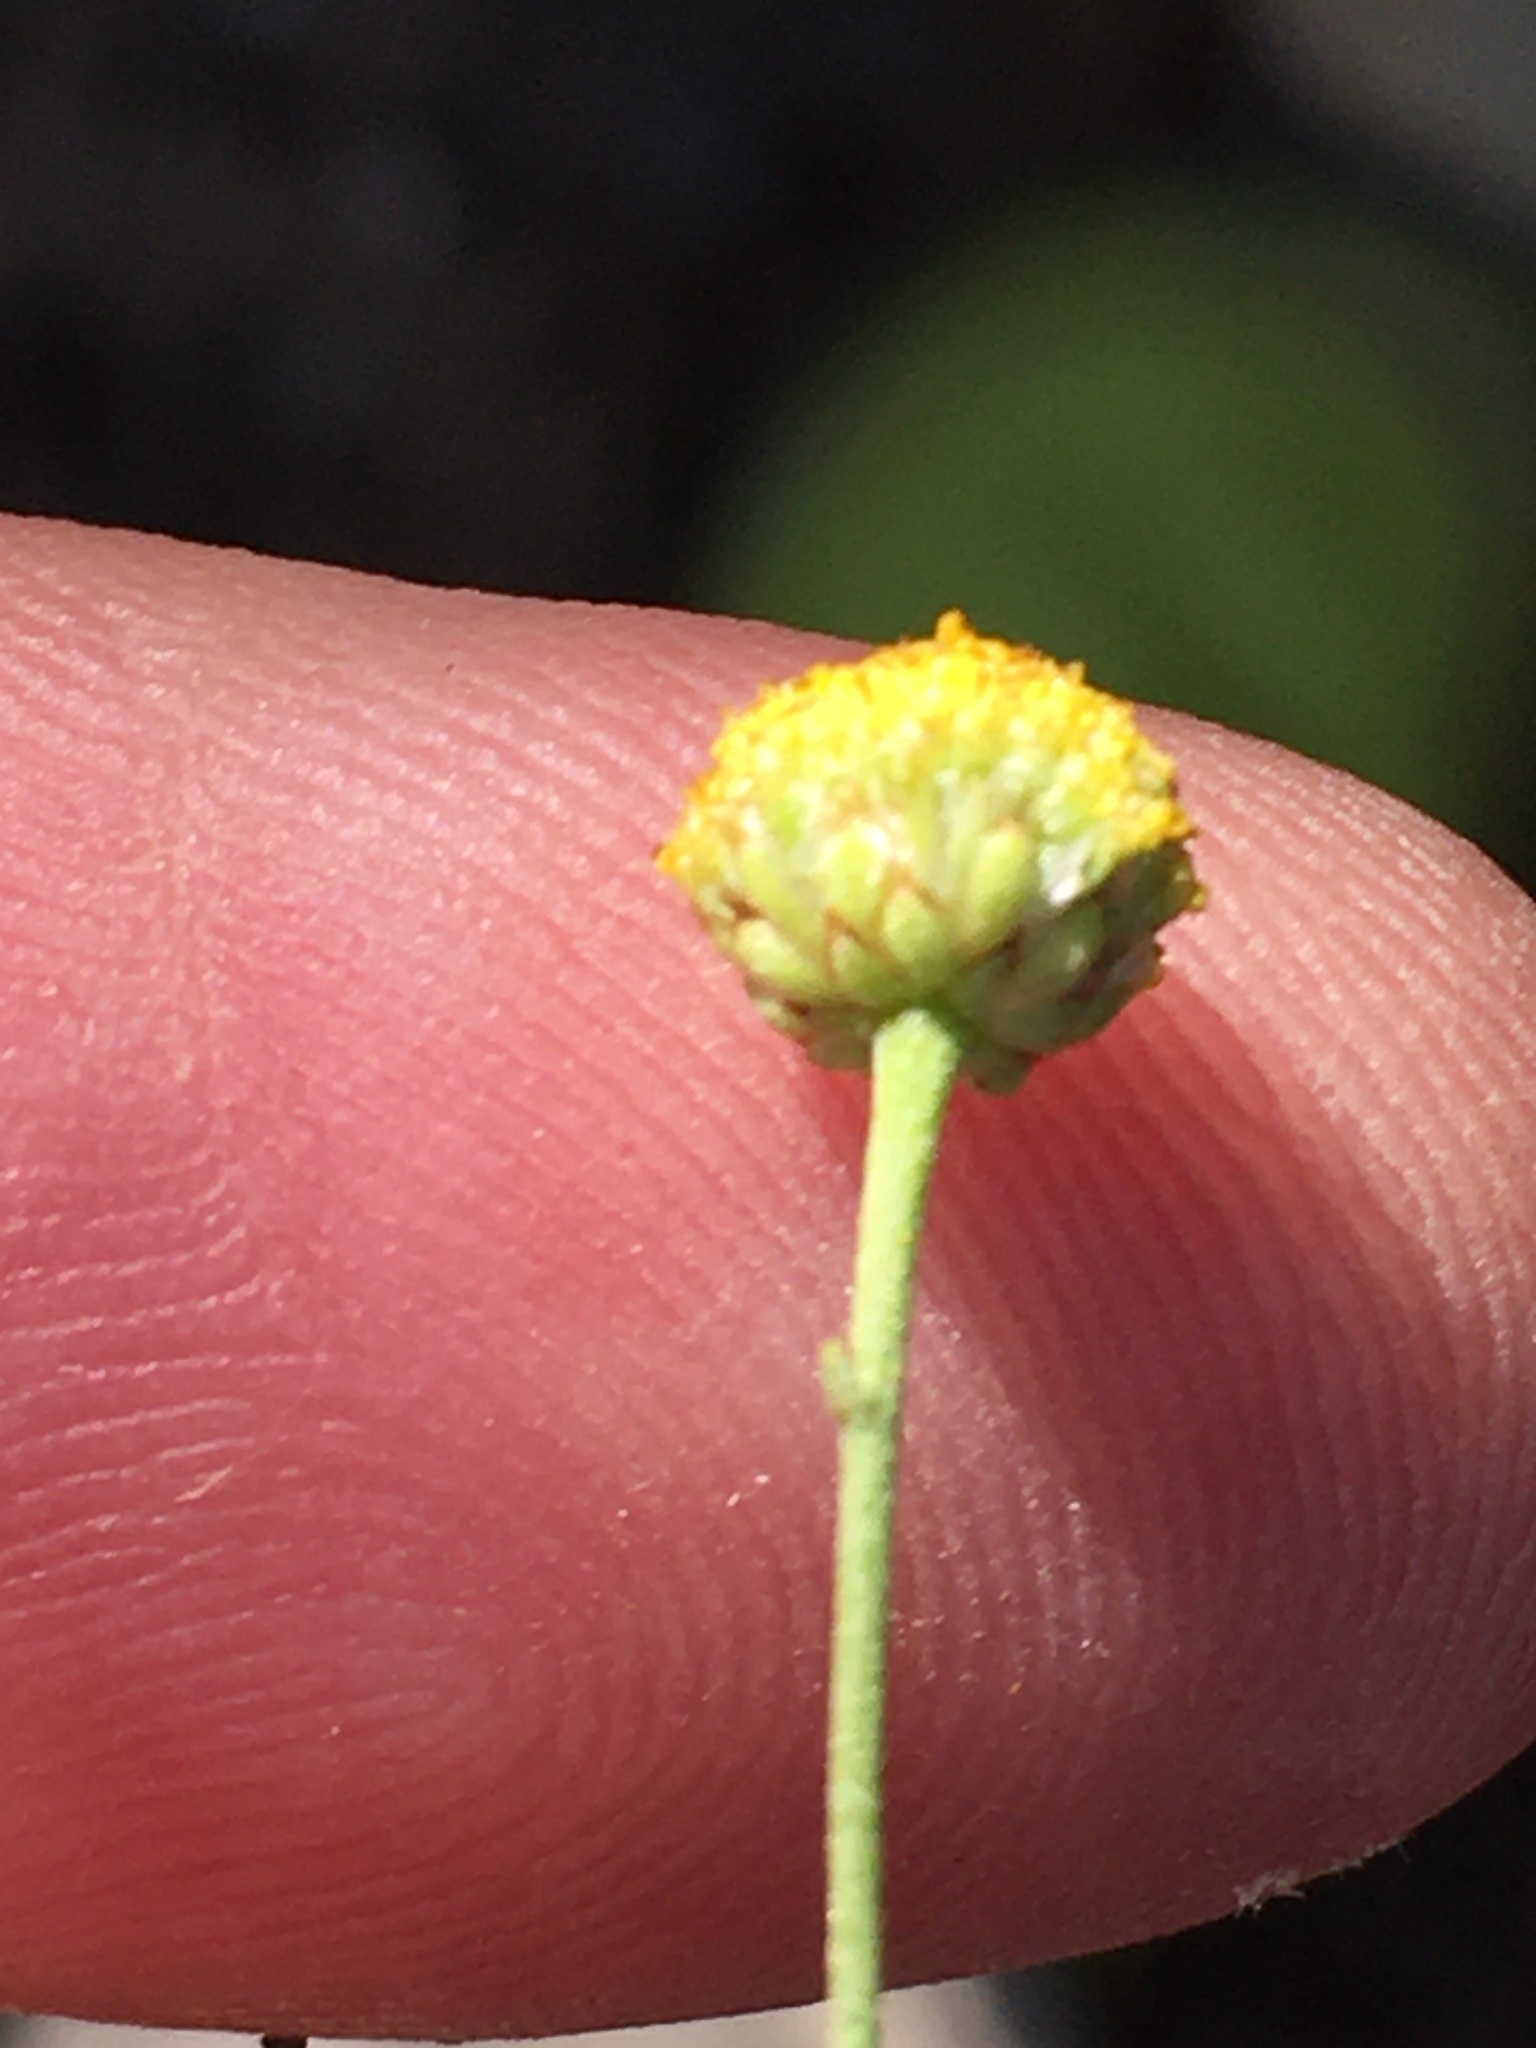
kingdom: Plantae
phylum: Tracheophyta
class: Magnoliopsida
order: Asterales
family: Asteraceae
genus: Pentzia
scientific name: Pentzia incana
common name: African sheepbush
